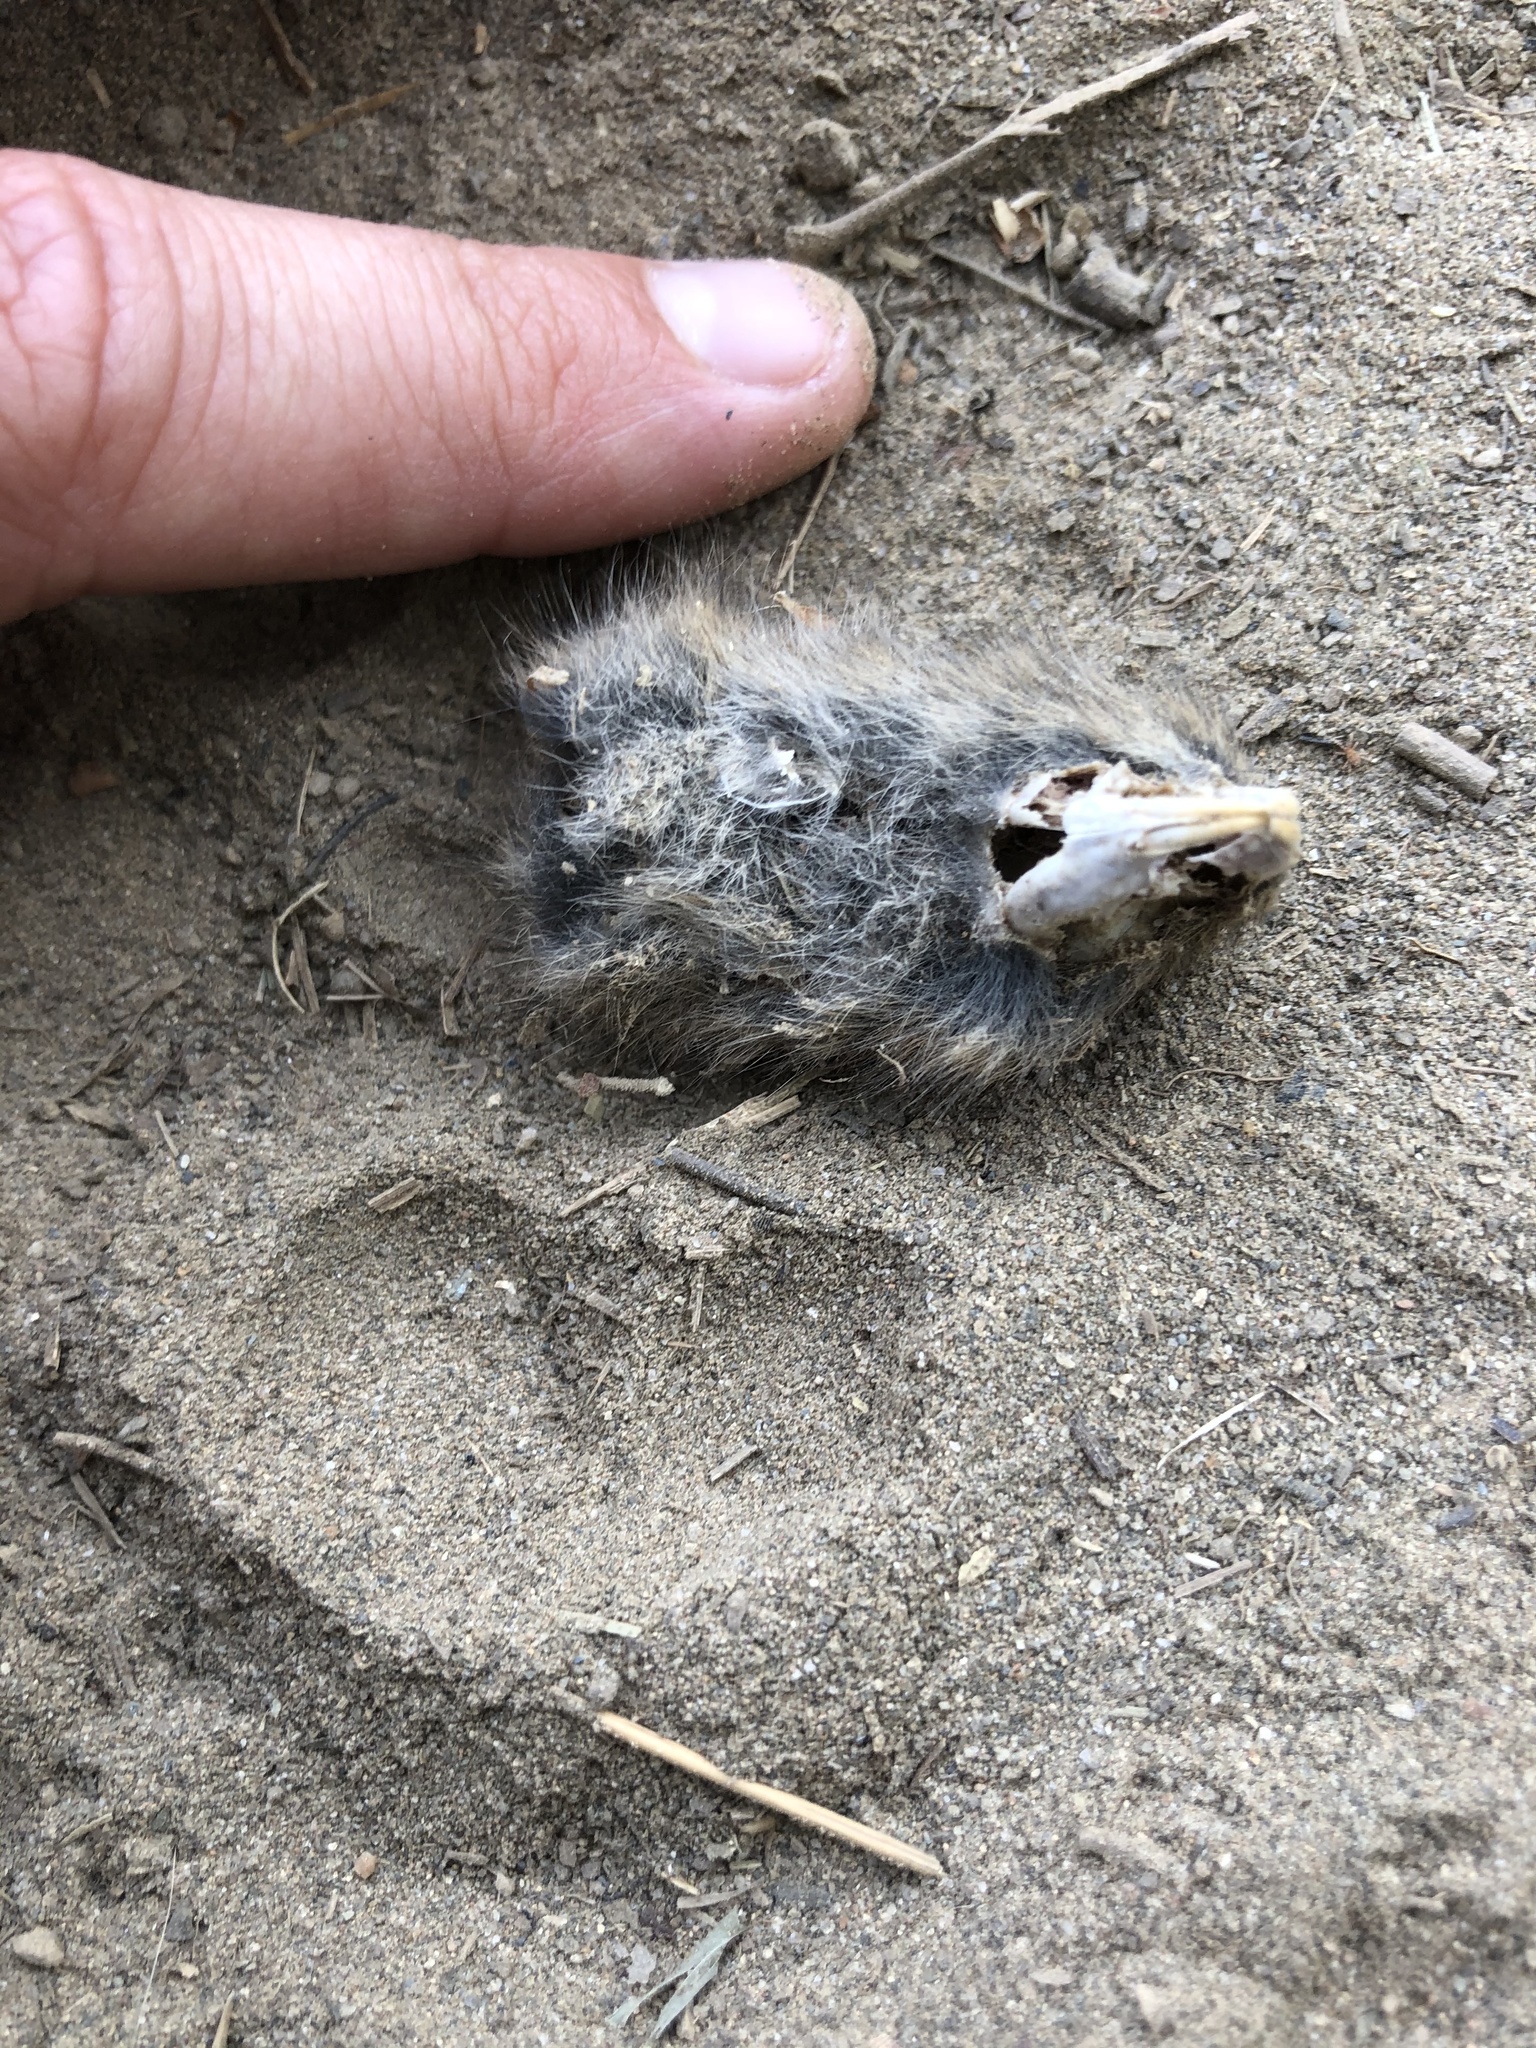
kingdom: Animalia
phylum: Chordata
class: Mammalia
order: Rodentia
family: Cricetidae
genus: Microtus
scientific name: Microtus californicus
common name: California vole
